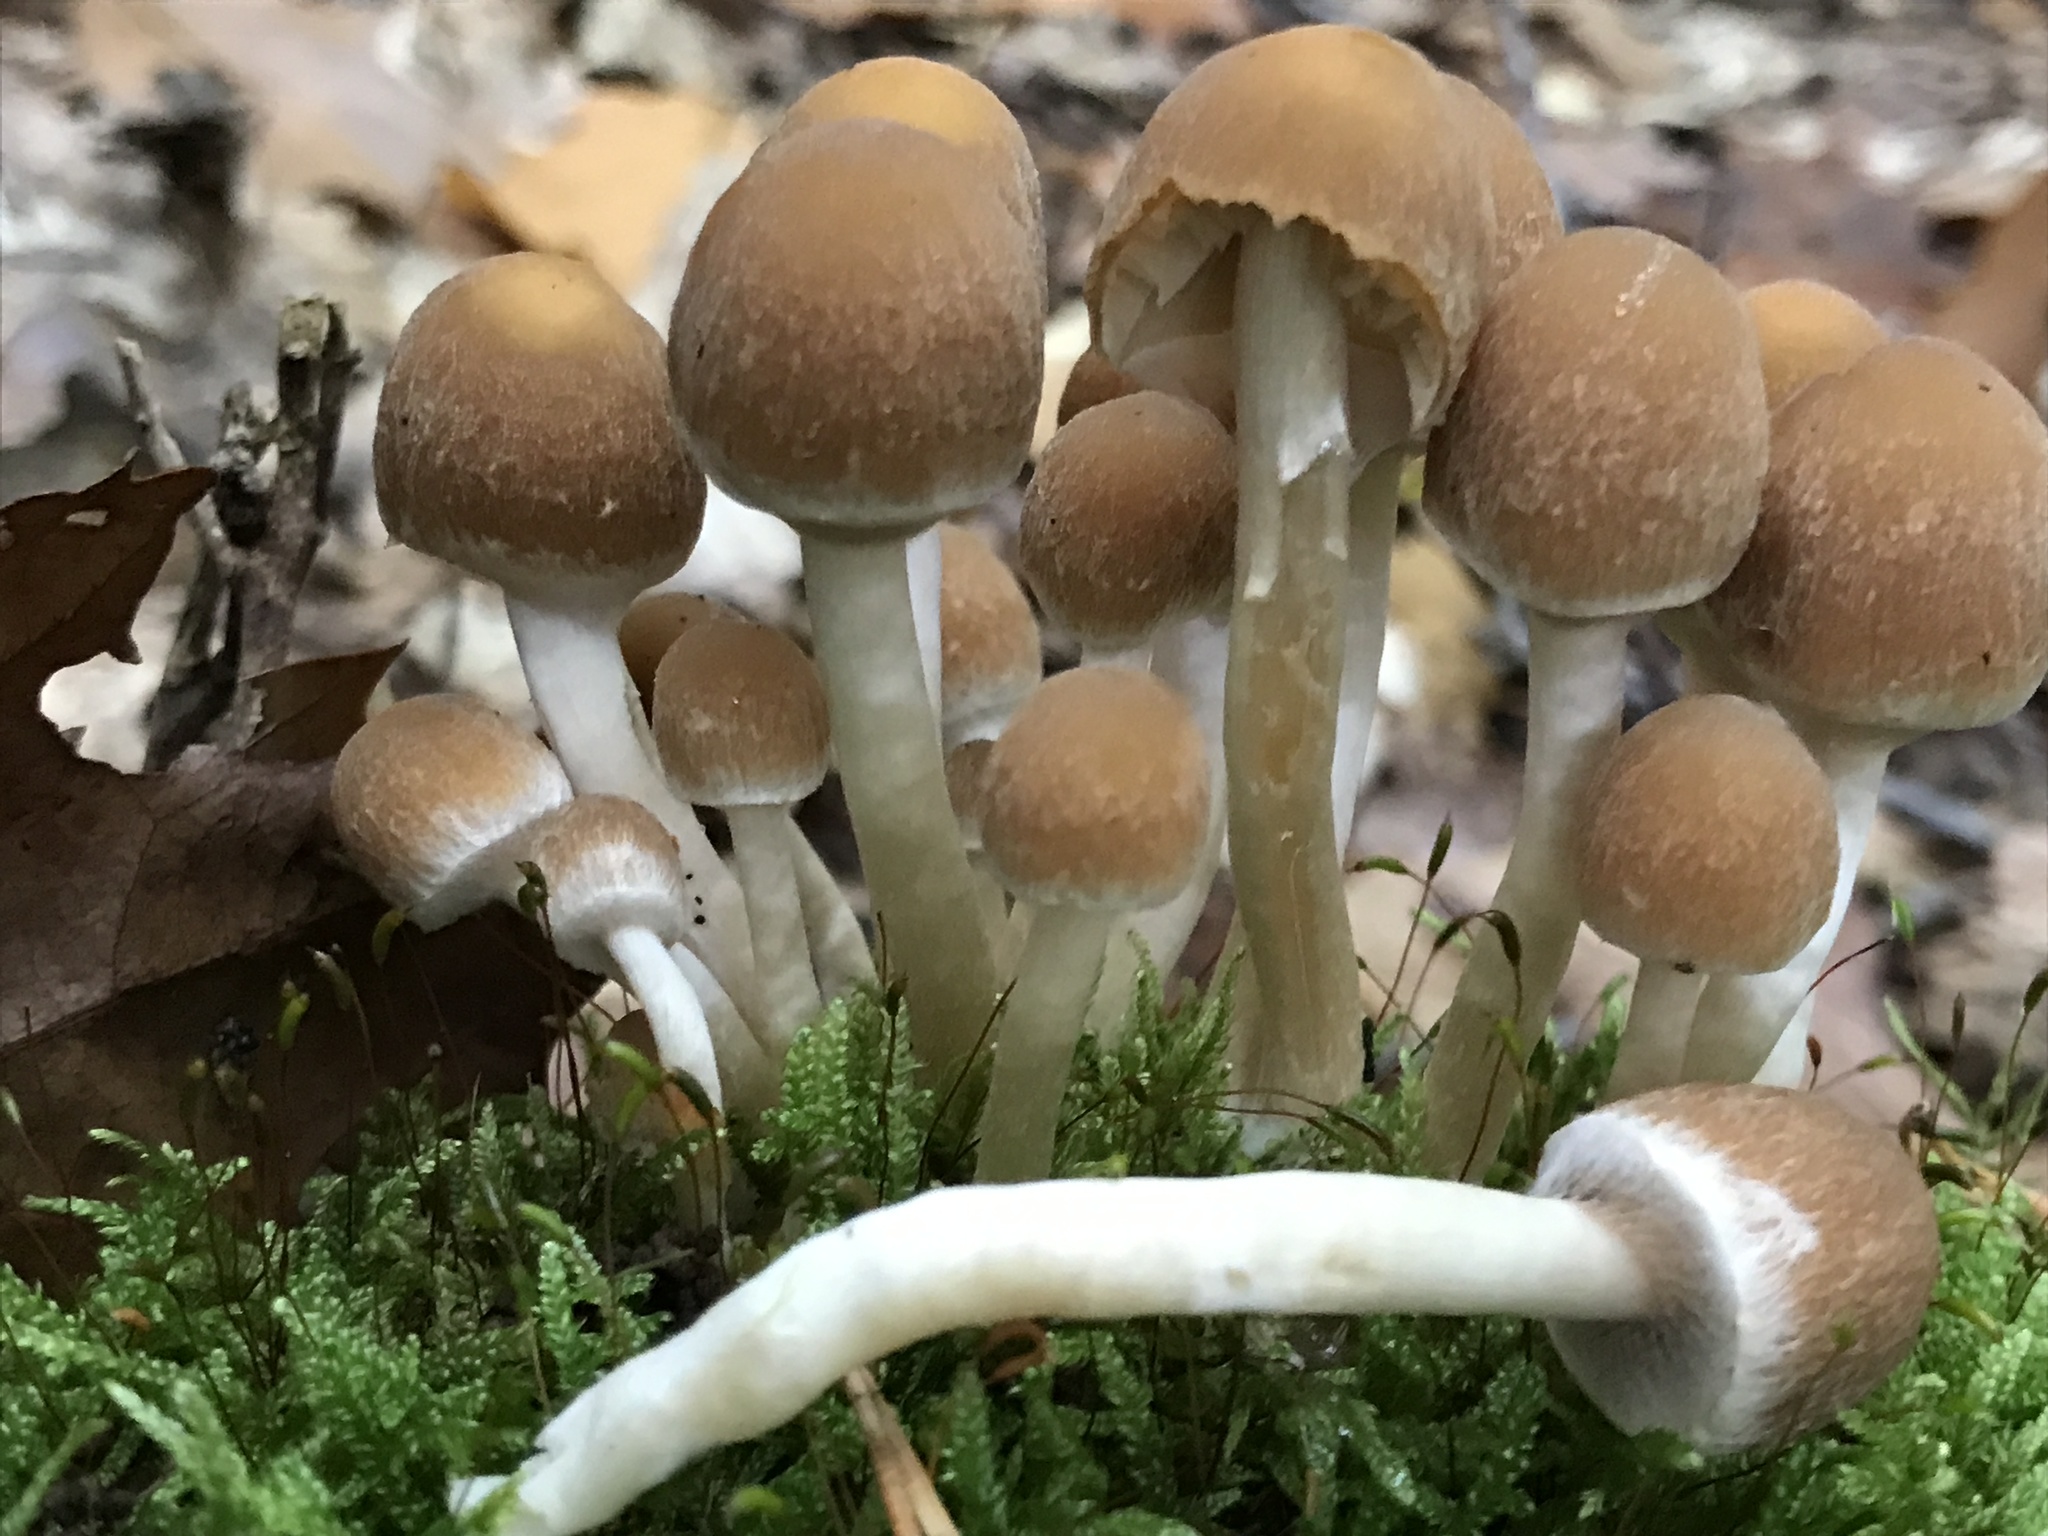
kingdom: Fungi
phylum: Basidiomycota
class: Agaricomycetes
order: Agaricales
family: Psathyrellaceae
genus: Psathyrella
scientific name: Psathyrella piluliformis
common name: Common stump brittlestem
